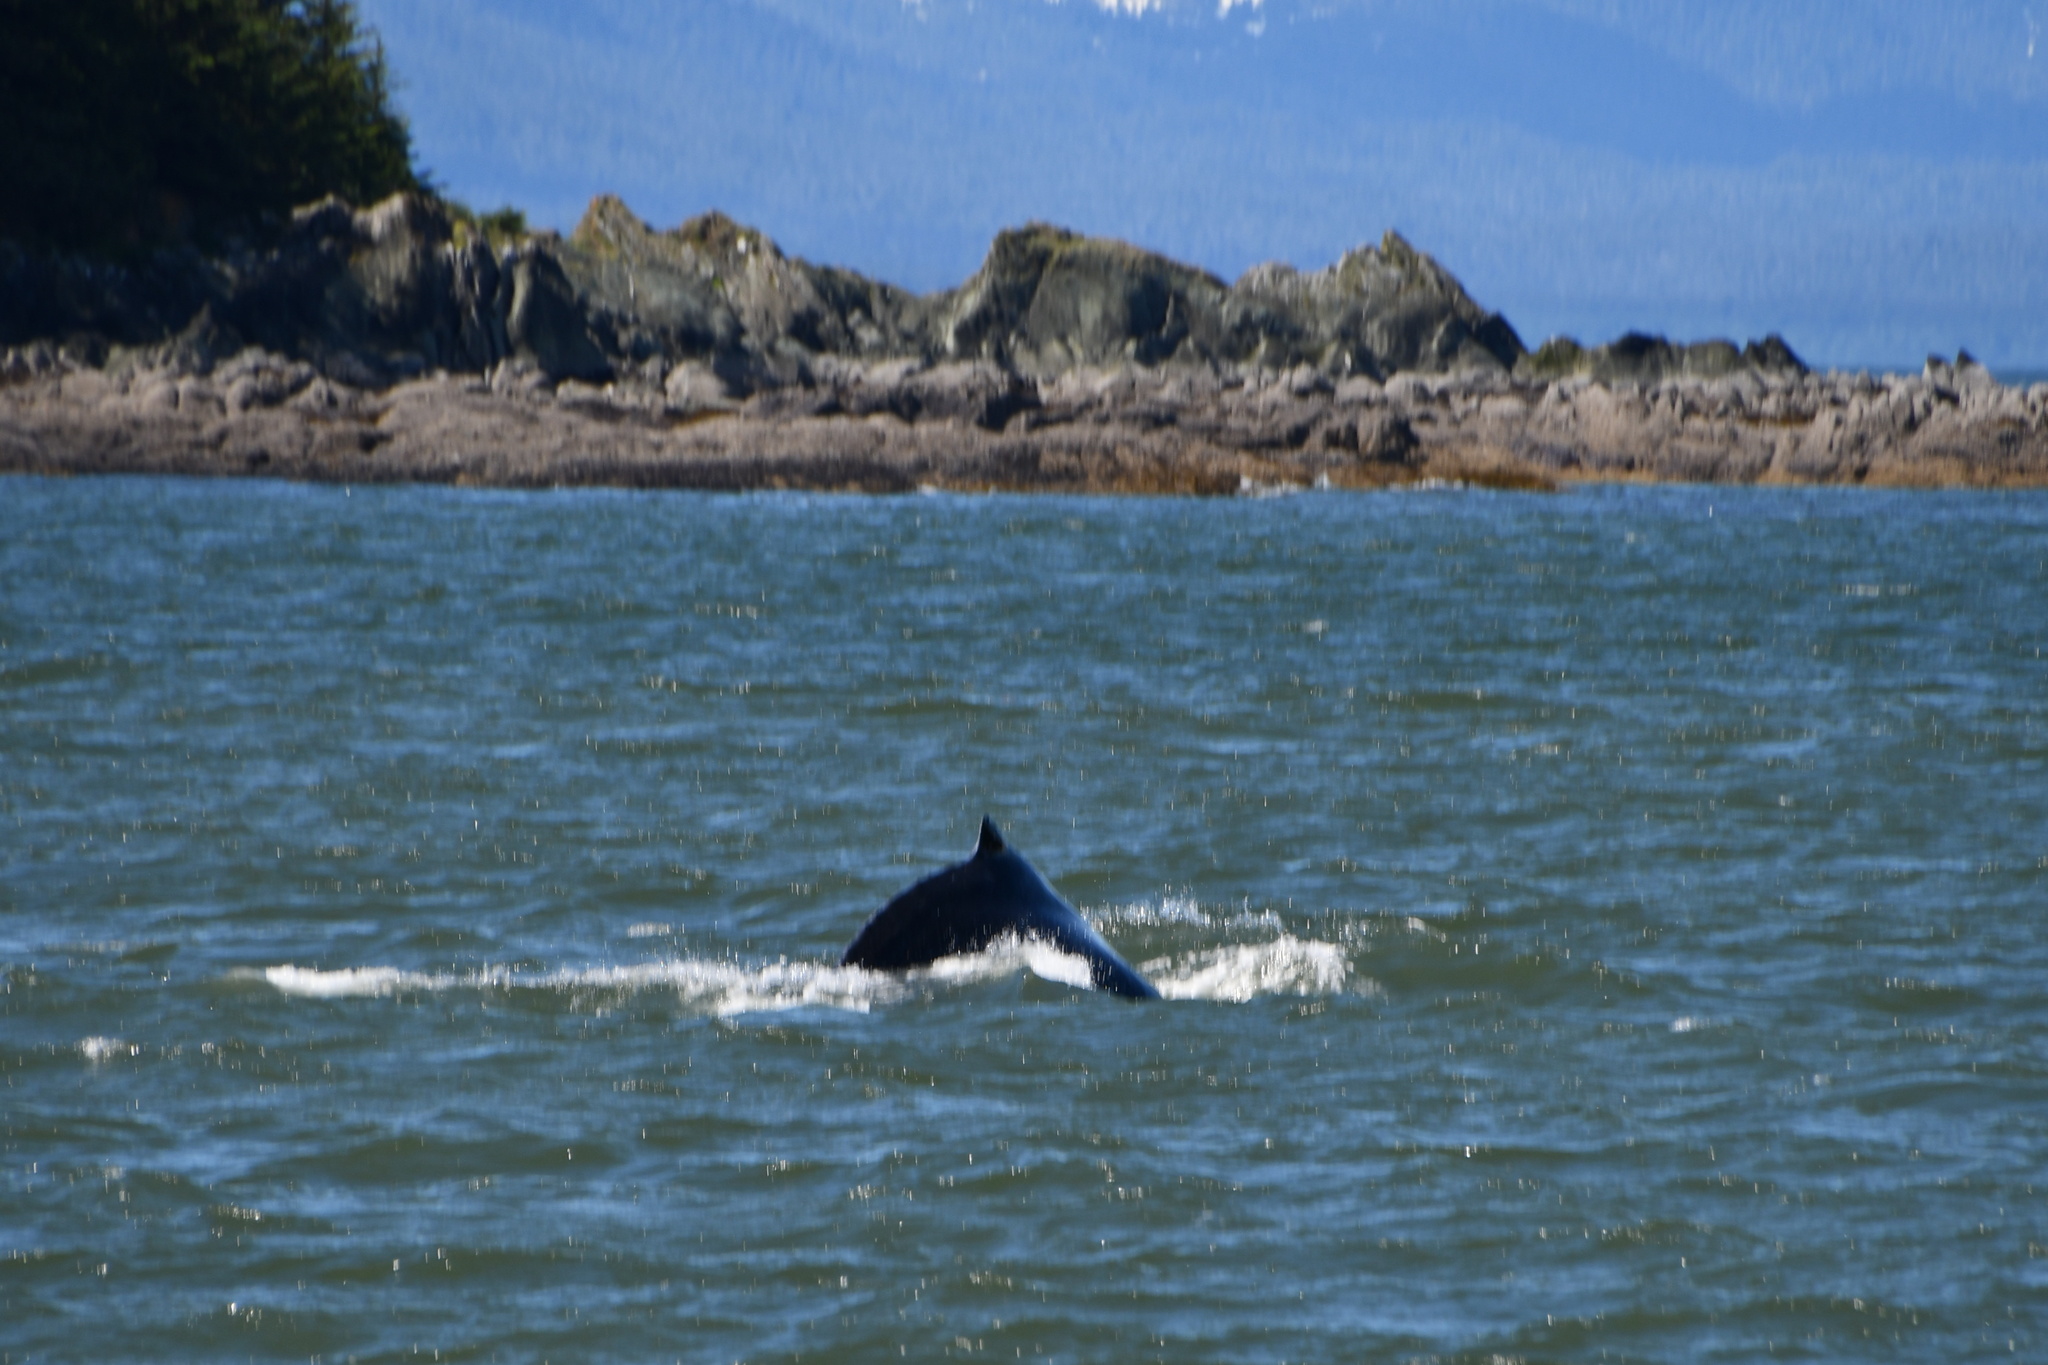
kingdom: Animalia
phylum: Chordata
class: Mammalia
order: Cetacea
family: Balaenopteridae
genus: Megaptera
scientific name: Megaptera novaeangliae
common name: Humpback whale
